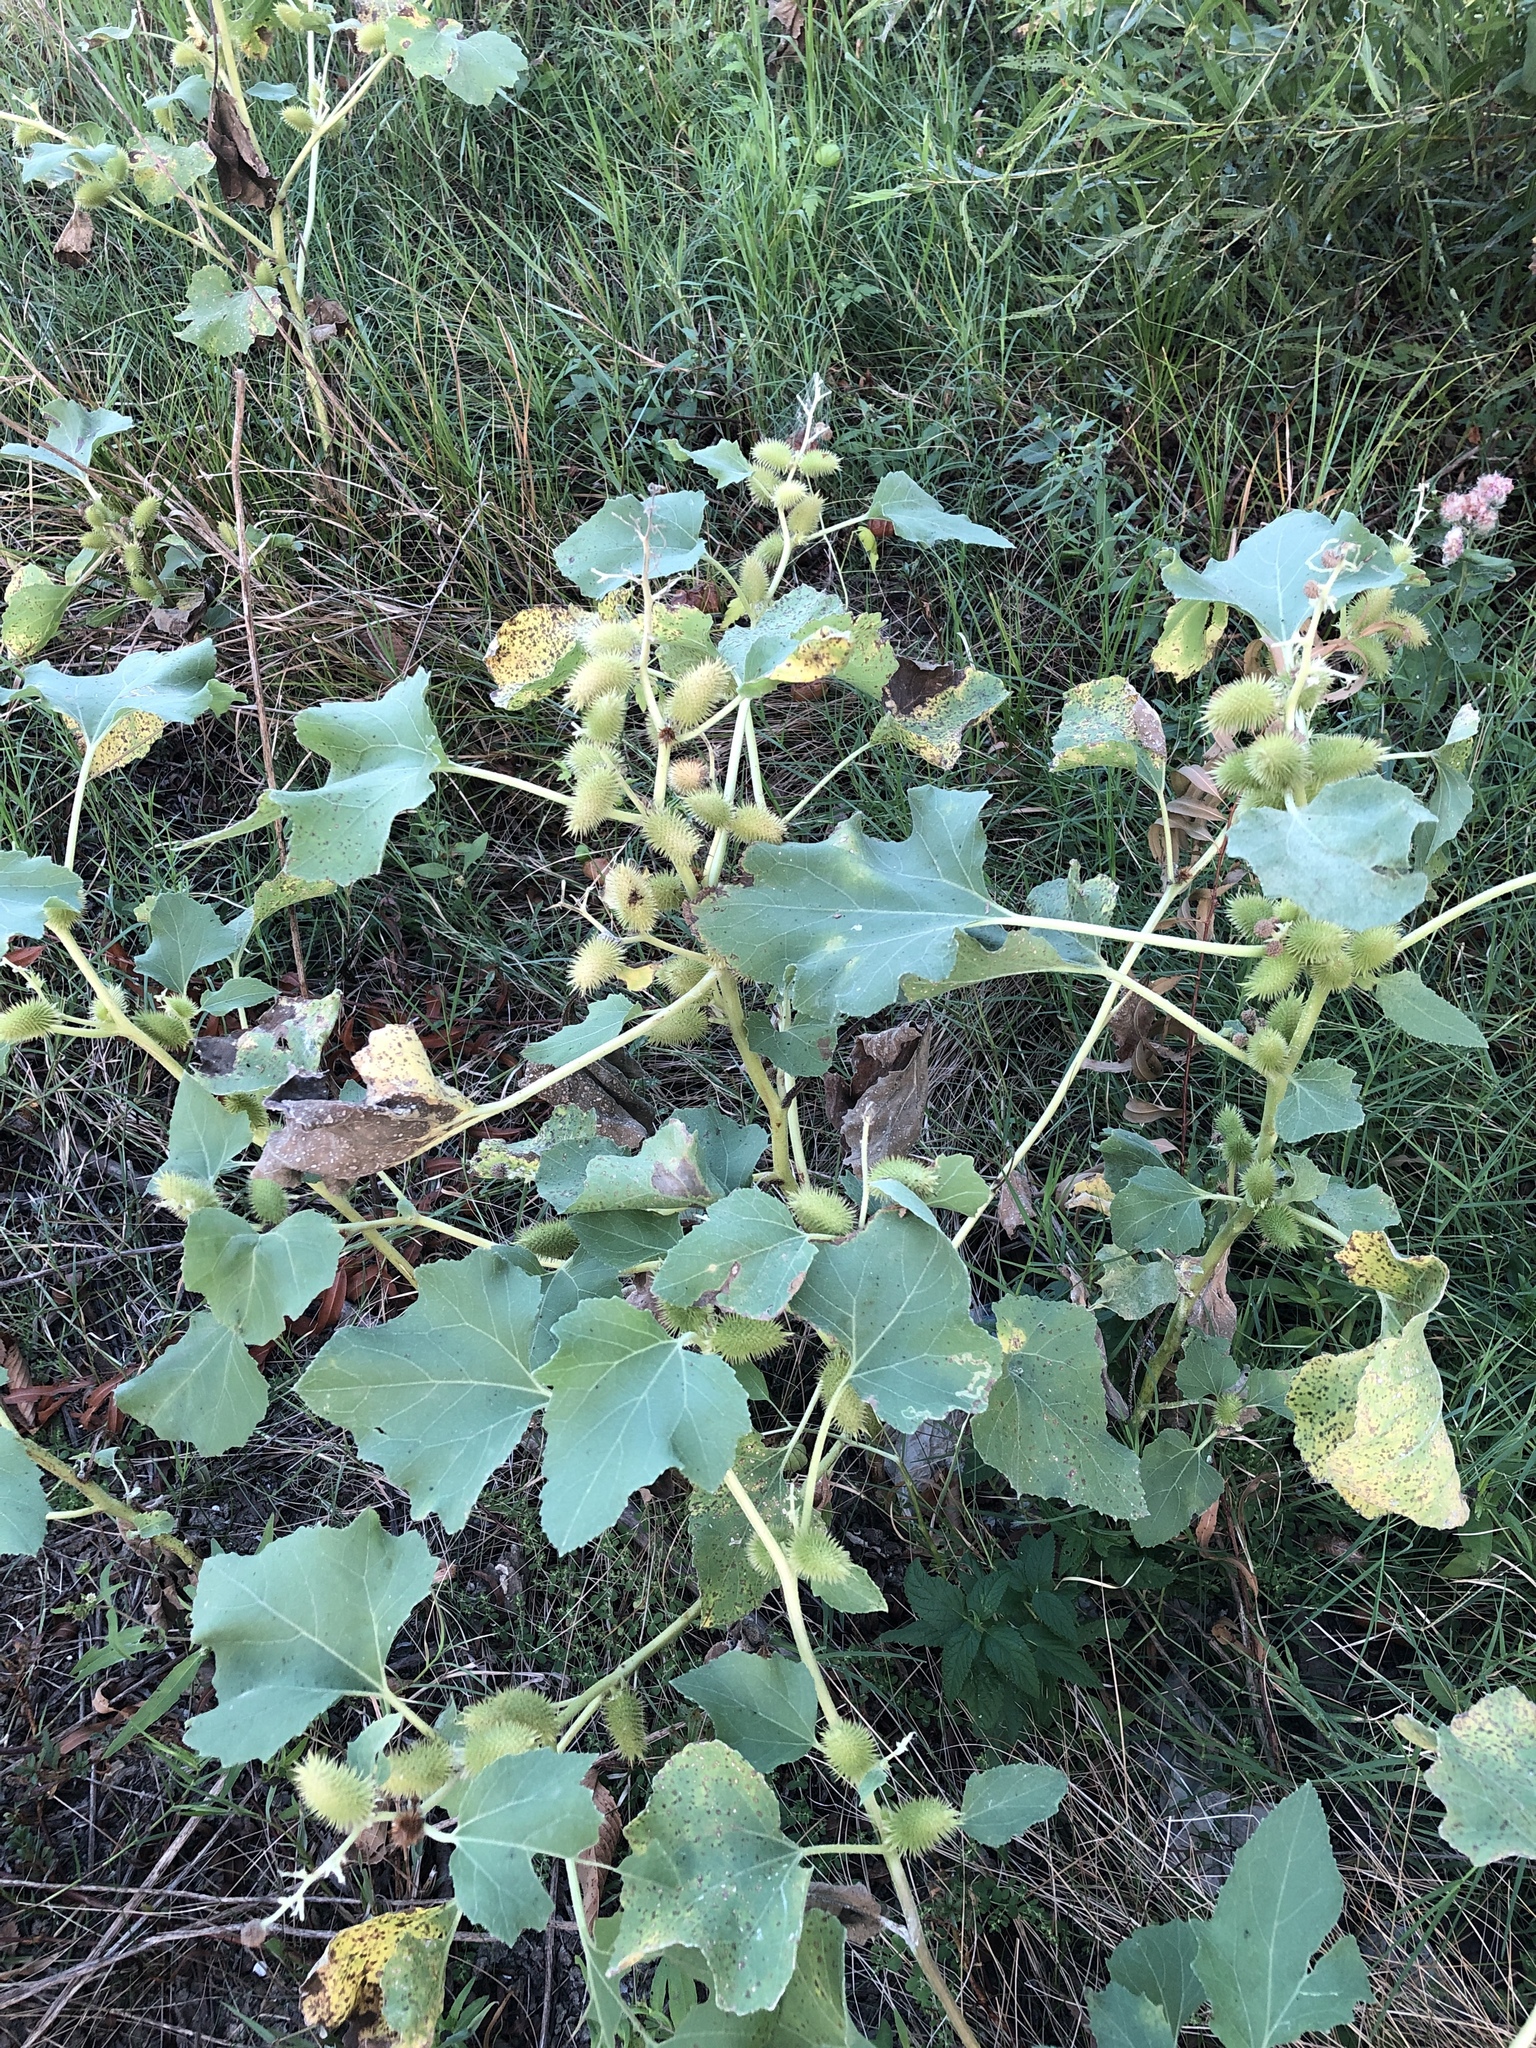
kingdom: Plantae
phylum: Tracheophyta
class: Magnoliopsida
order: Asterales
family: Asteraceae
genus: Xanthium
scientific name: Xanthium strumarium
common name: Rough cocklebur
